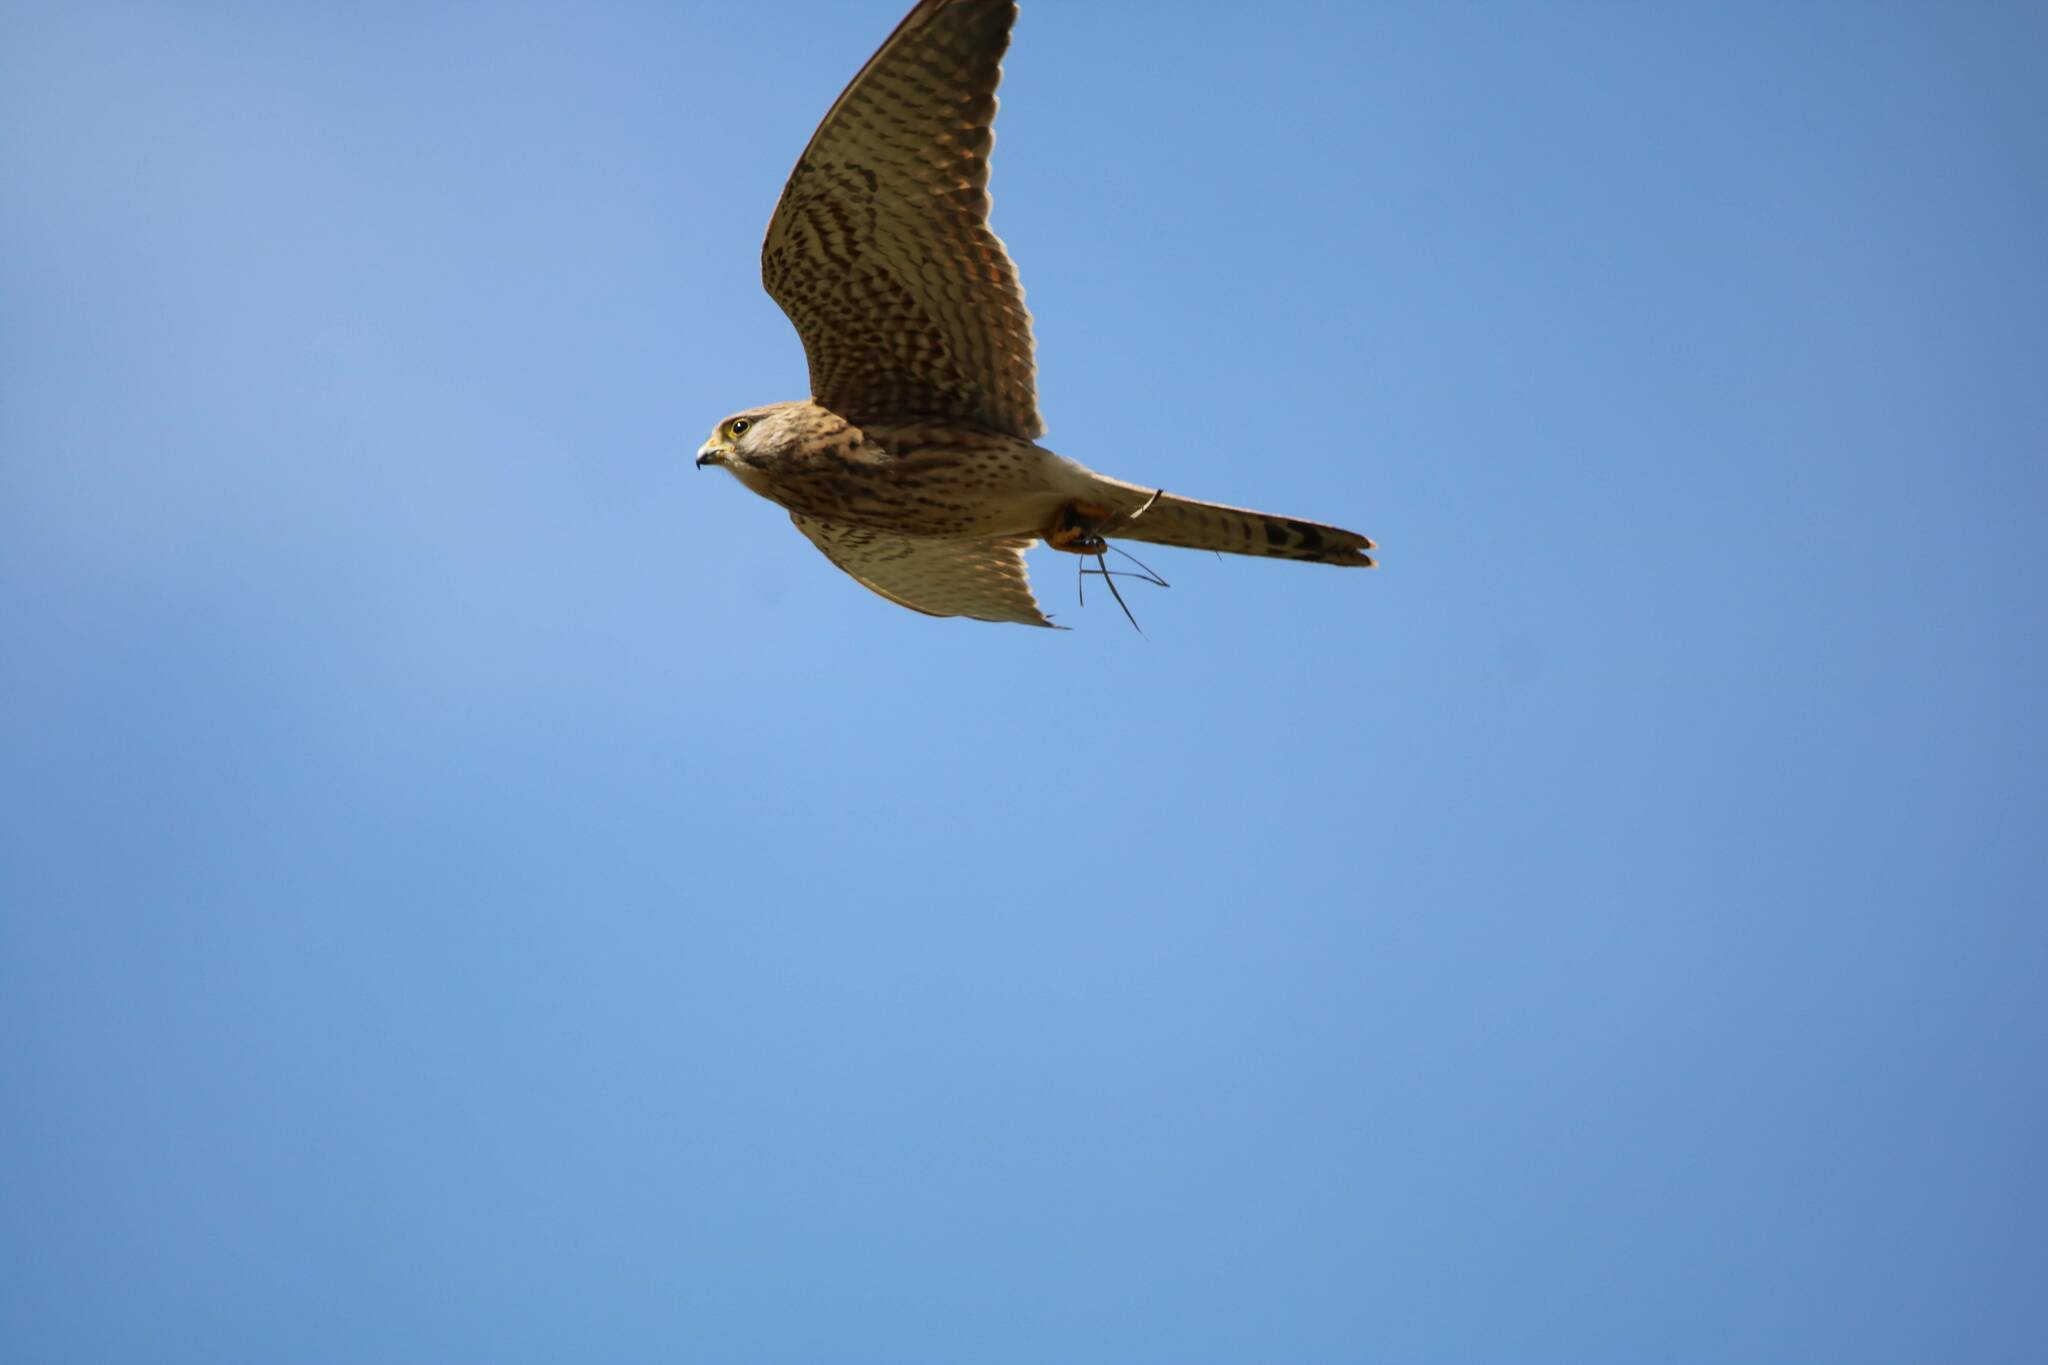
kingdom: Animalia
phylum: Chordata
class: Aves
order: Falconiformes
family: Falconidae
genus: Falco
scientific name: Falco tinnunculus
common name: Common kestrel
